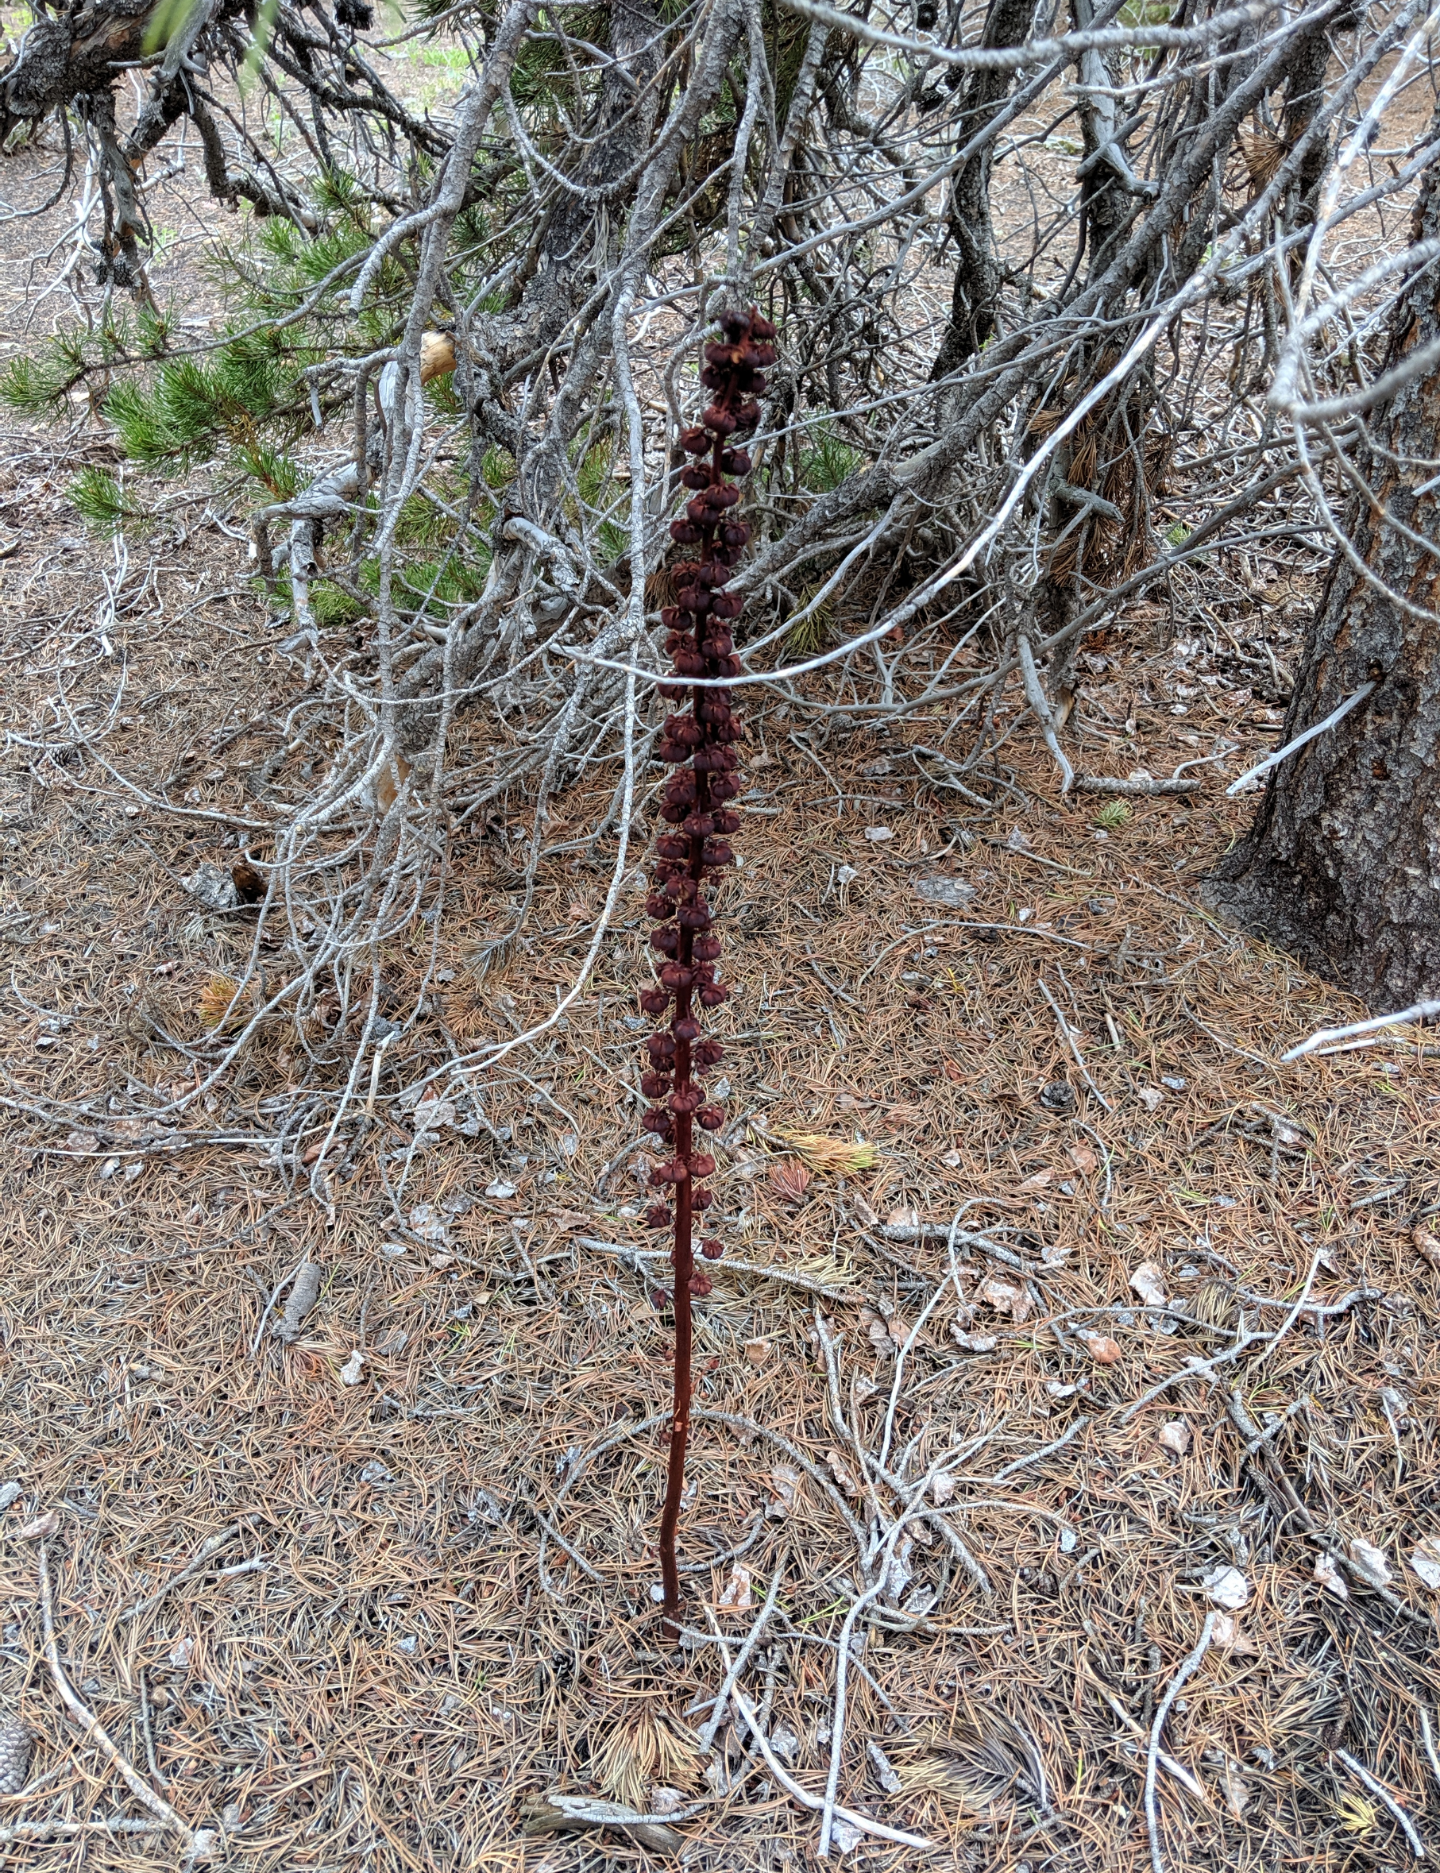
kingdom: Plantae
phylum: Tracheophyta
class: Magnoliopsida
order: Ericales
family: Ericaceae
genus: Pterospora
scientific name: Pterospora andromedea
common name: Giant bird's-nest
